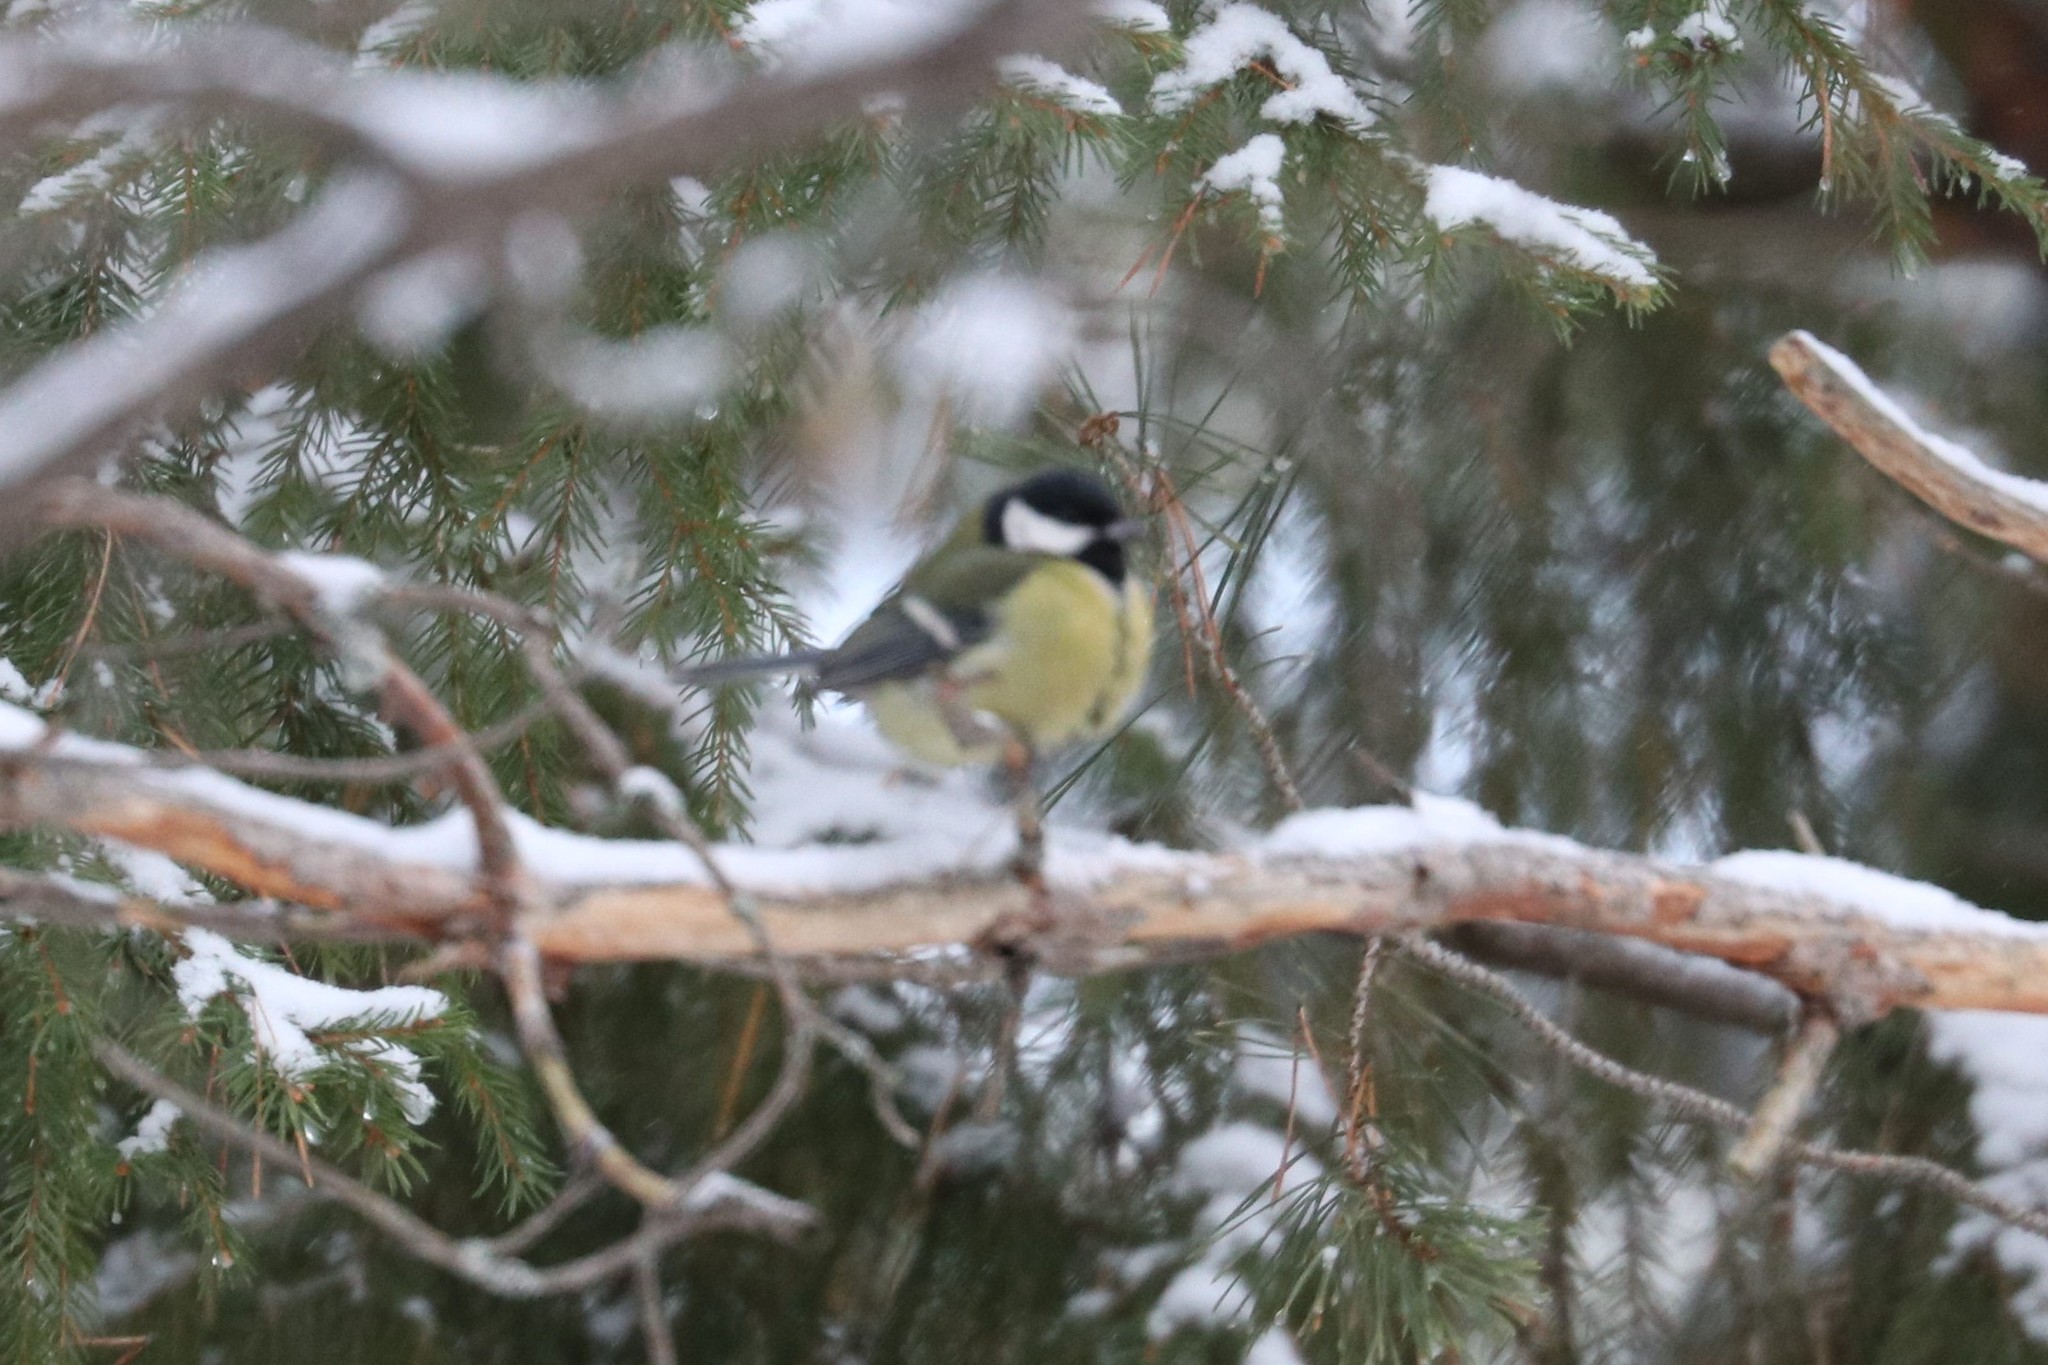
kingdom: Animalia
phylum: Chordata
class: Aves
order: Passeriformes
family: Paridae
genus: Parus
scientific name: Parus major
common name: Great tit
